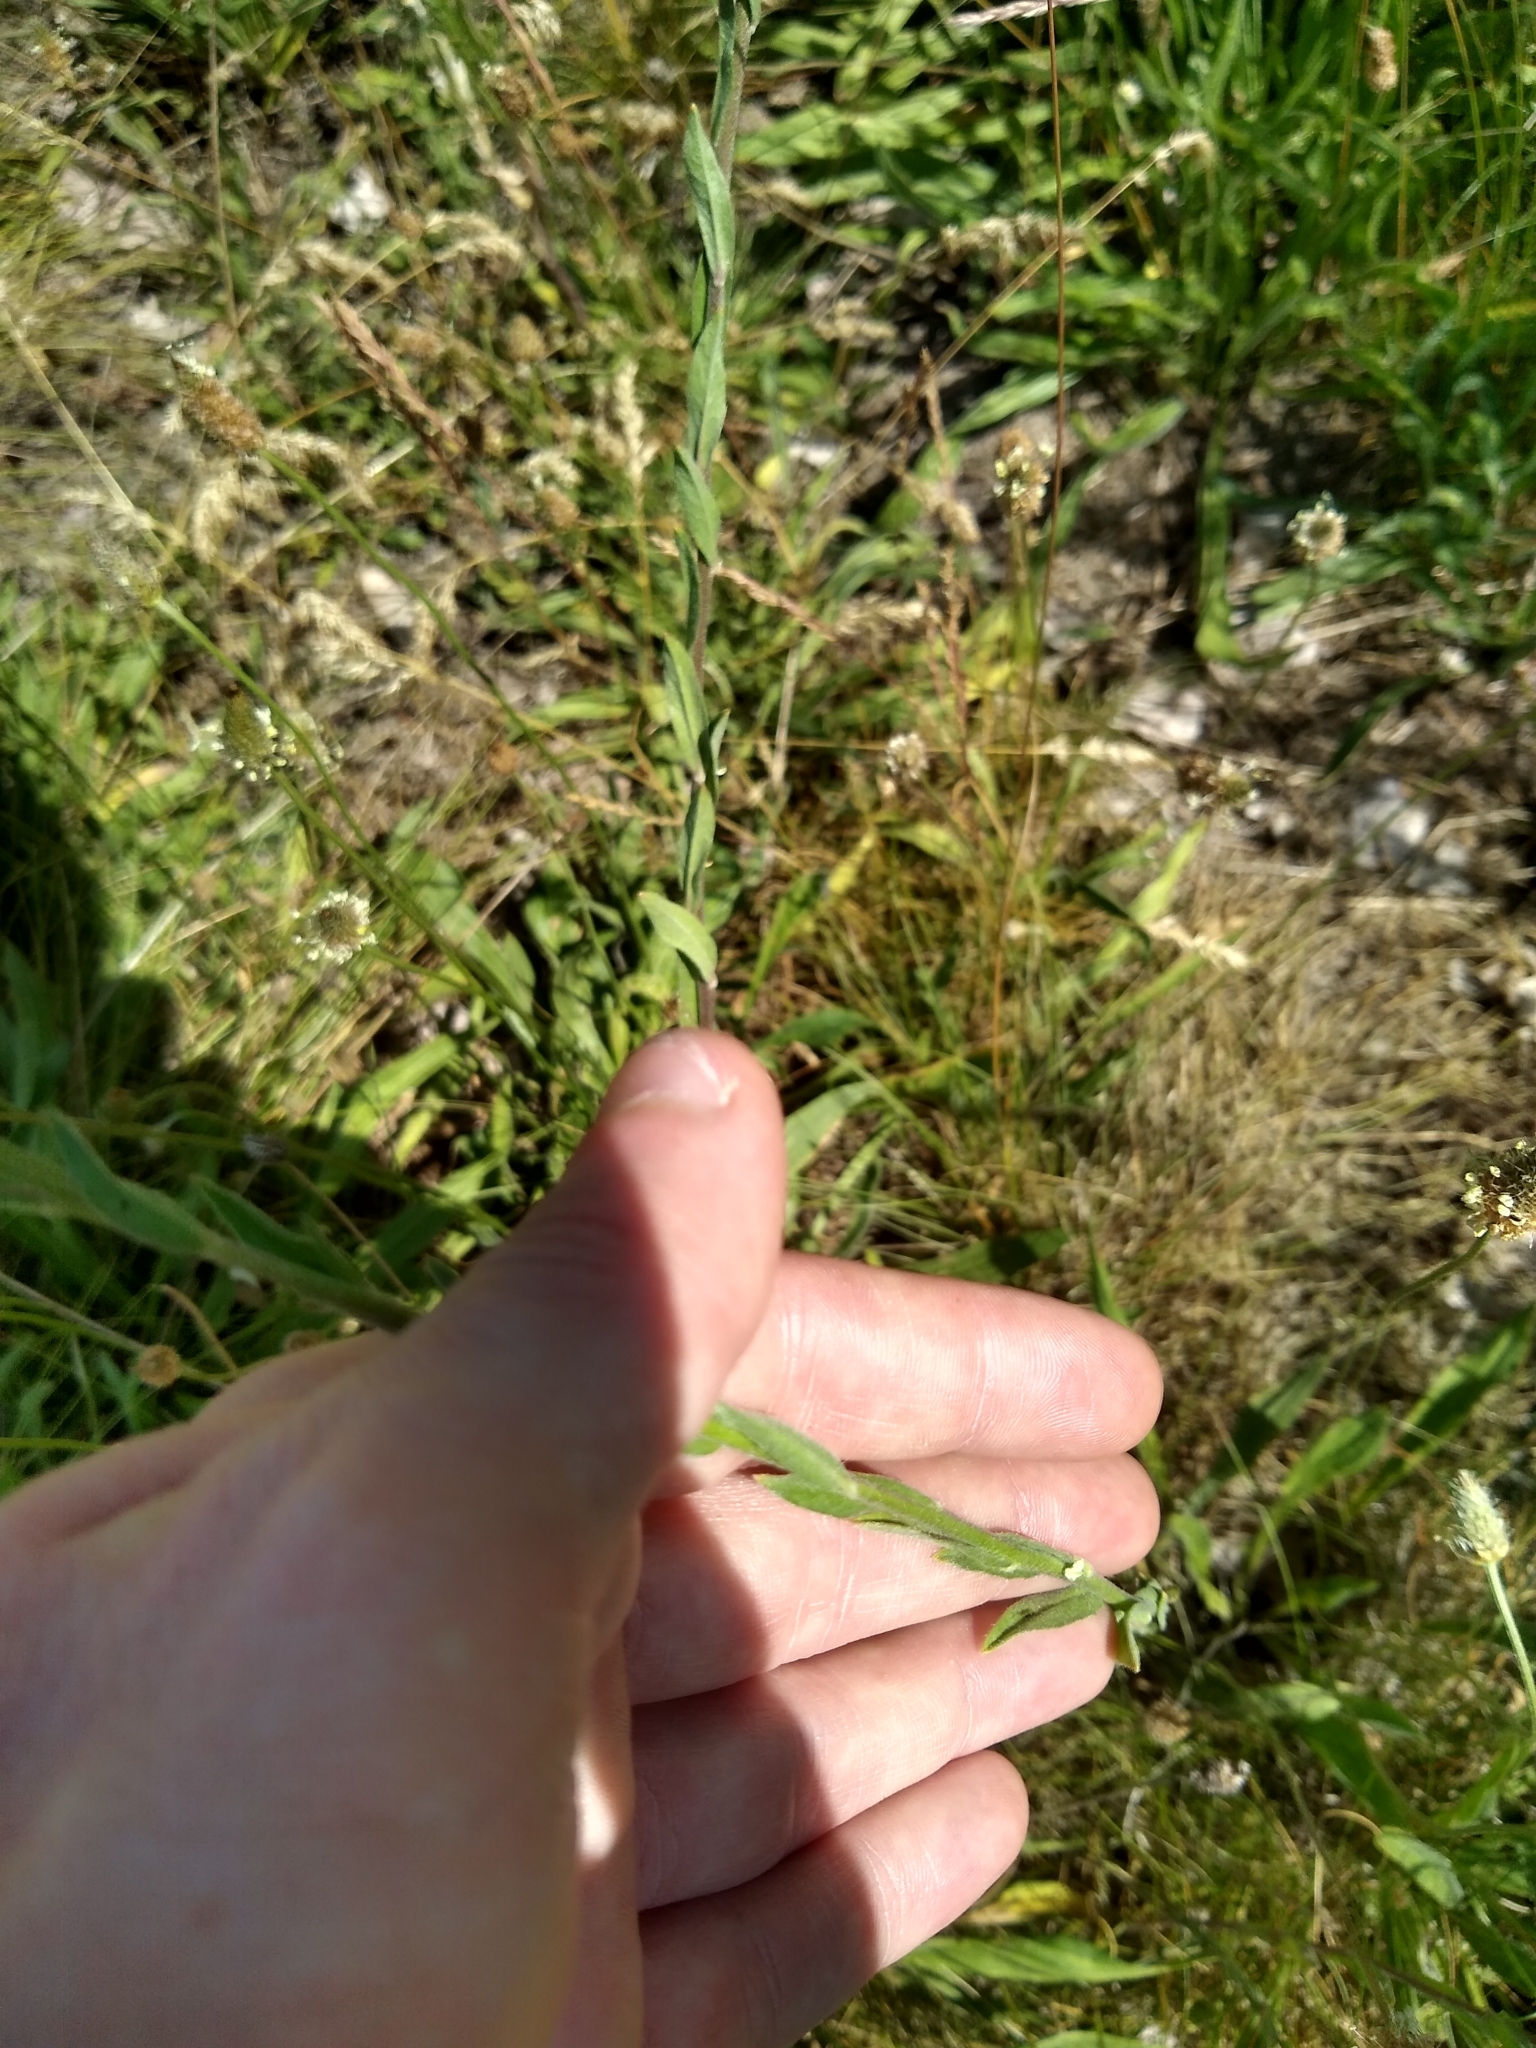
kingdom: Plantae
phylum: Tracheophyta
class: Magnoliopsida
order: Brassicales
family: Brassicaceae
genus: Berteroa
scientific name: Berteroa incana
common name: Hoary alison
